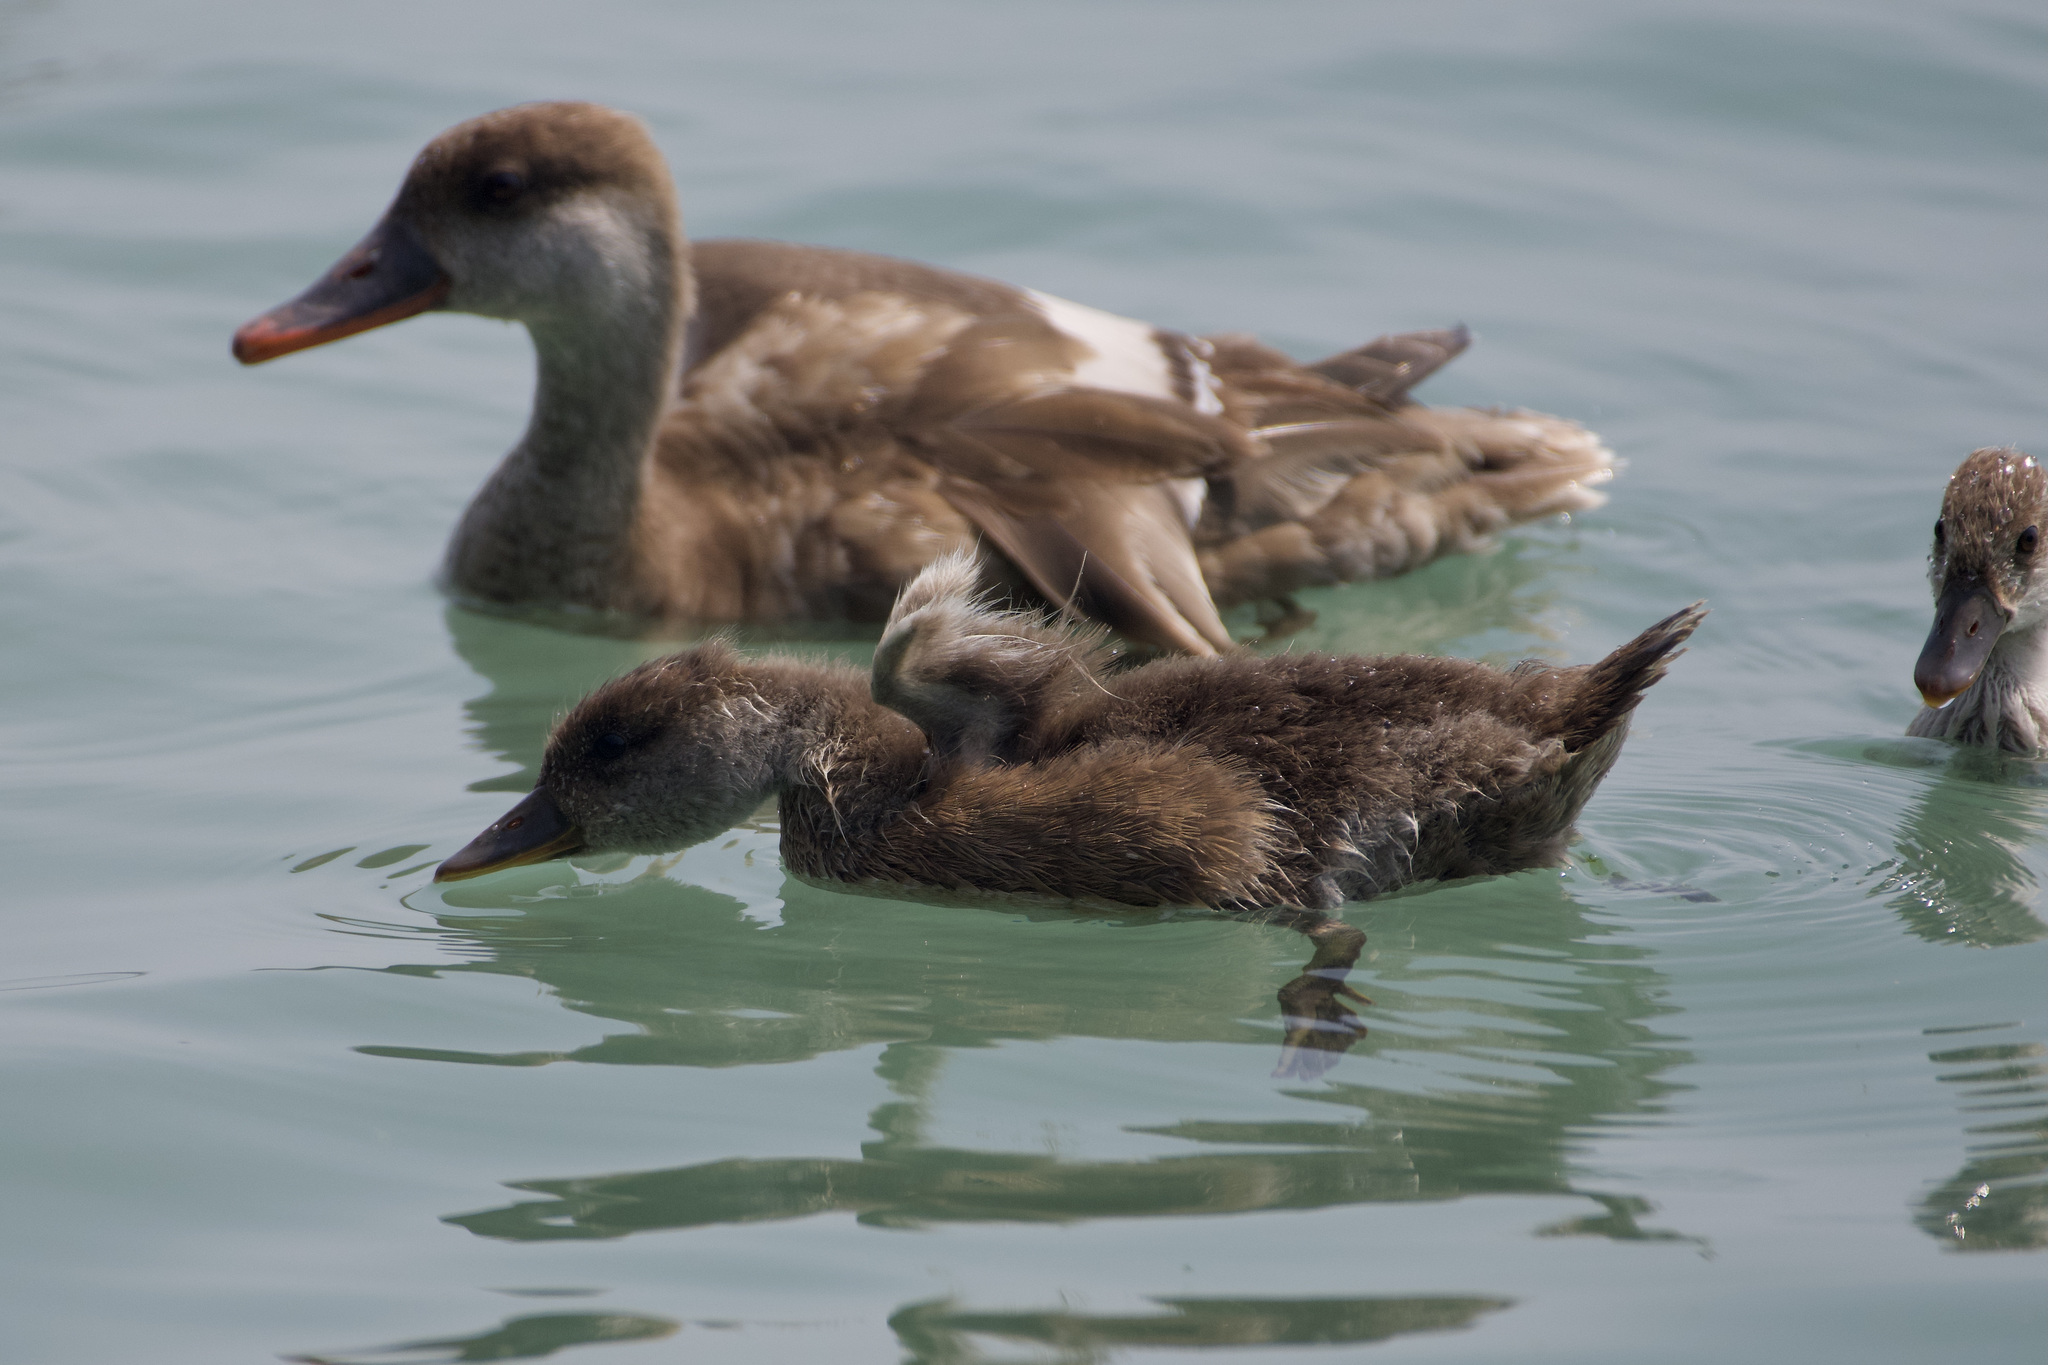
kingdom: Animalia
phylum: Chordata
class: Aves
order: Anseriformes
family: Anatidae
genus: Netta
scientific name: Netta rufina
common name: Red-crested pochard
